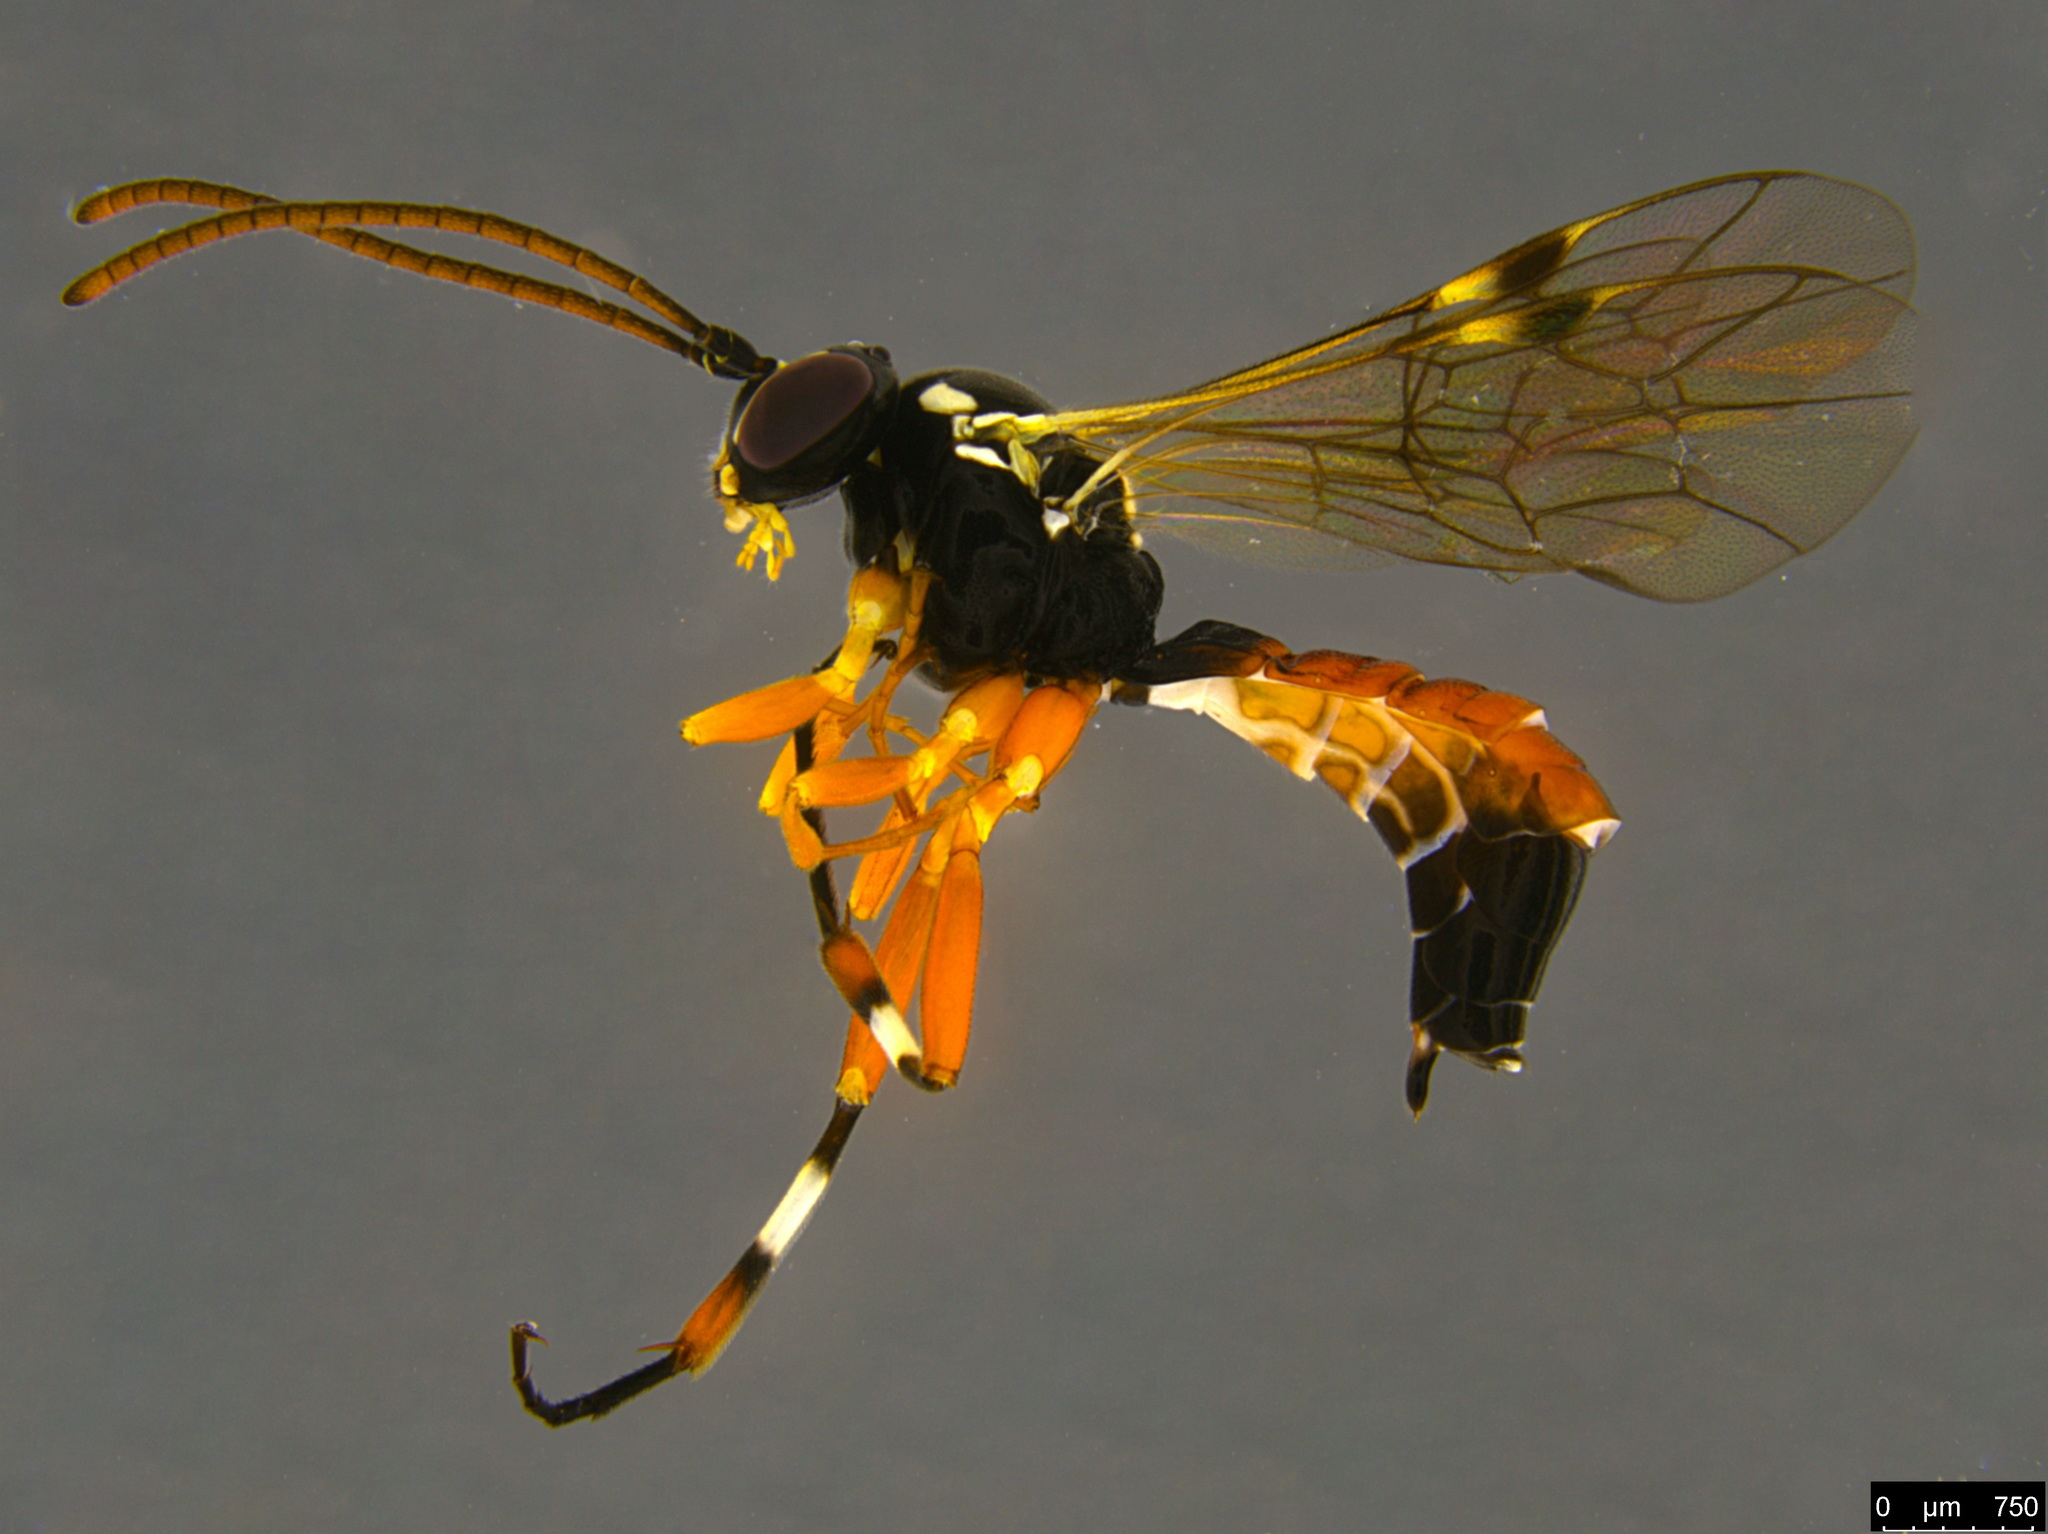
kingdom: Animalia
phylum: Arthropoda
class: Insecta
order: Hymenoptera
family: Ichneumonidae
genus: Diplazon
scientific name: Diplazon laetatorius
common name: Parasitoid wasp
